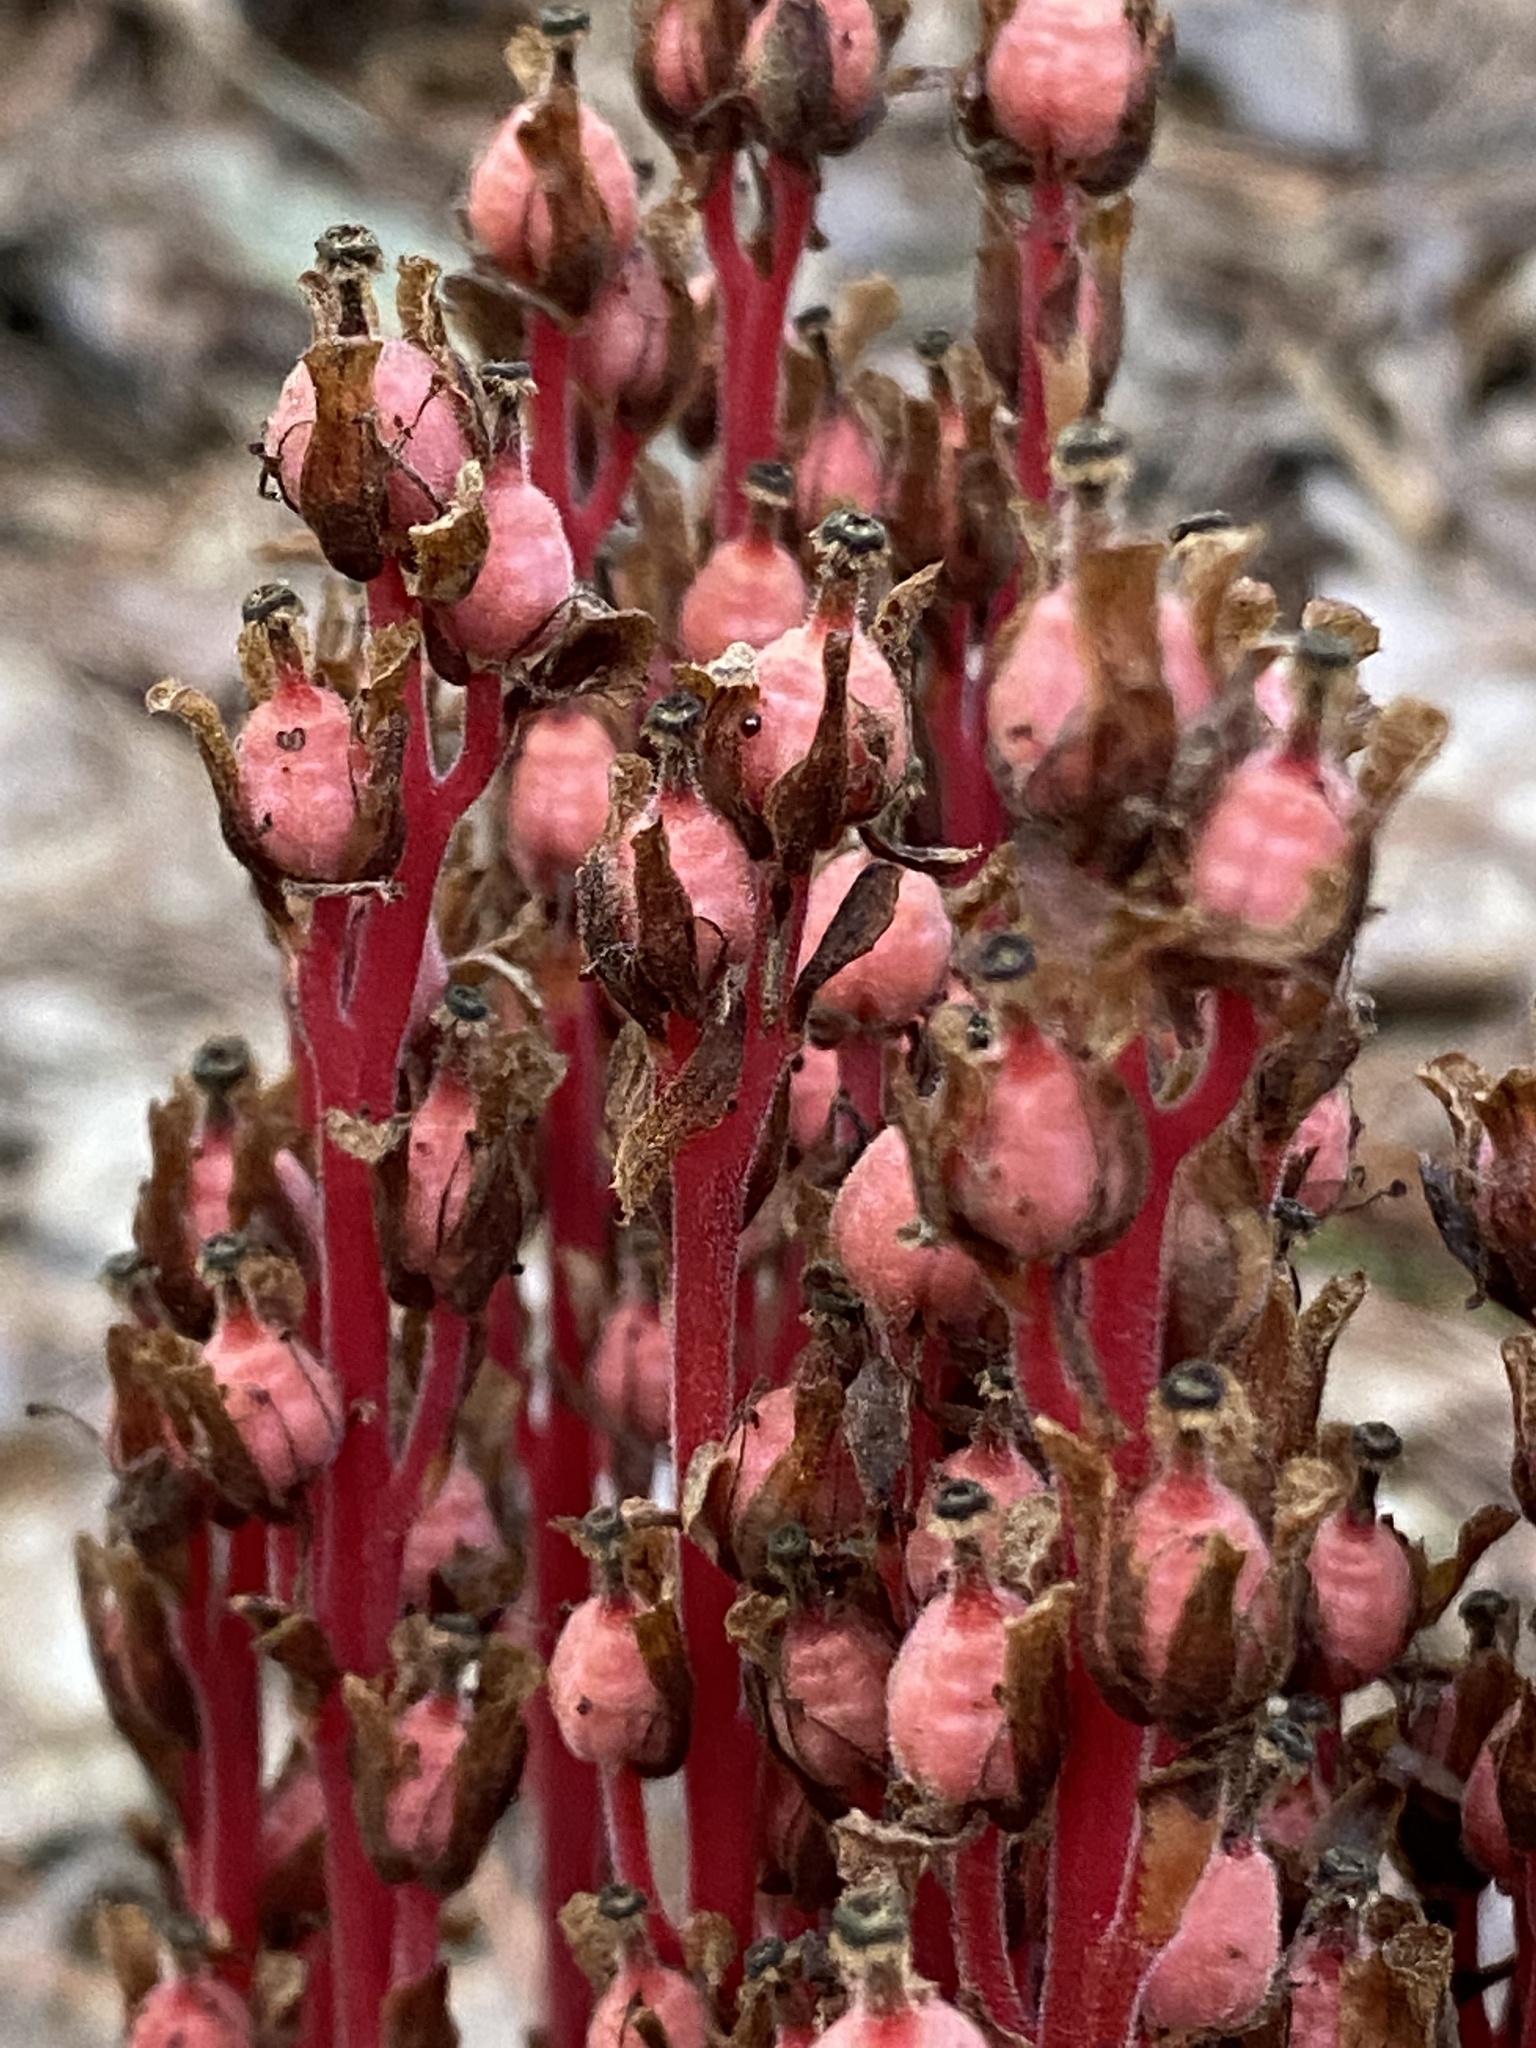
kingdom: Plantae
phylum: Tracheophyta
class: Magnoliopsida
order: Ericales
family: Ericaceae
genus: Hypopitys
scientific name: Hypopitys monotropa
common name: Yellow bird's-nest
